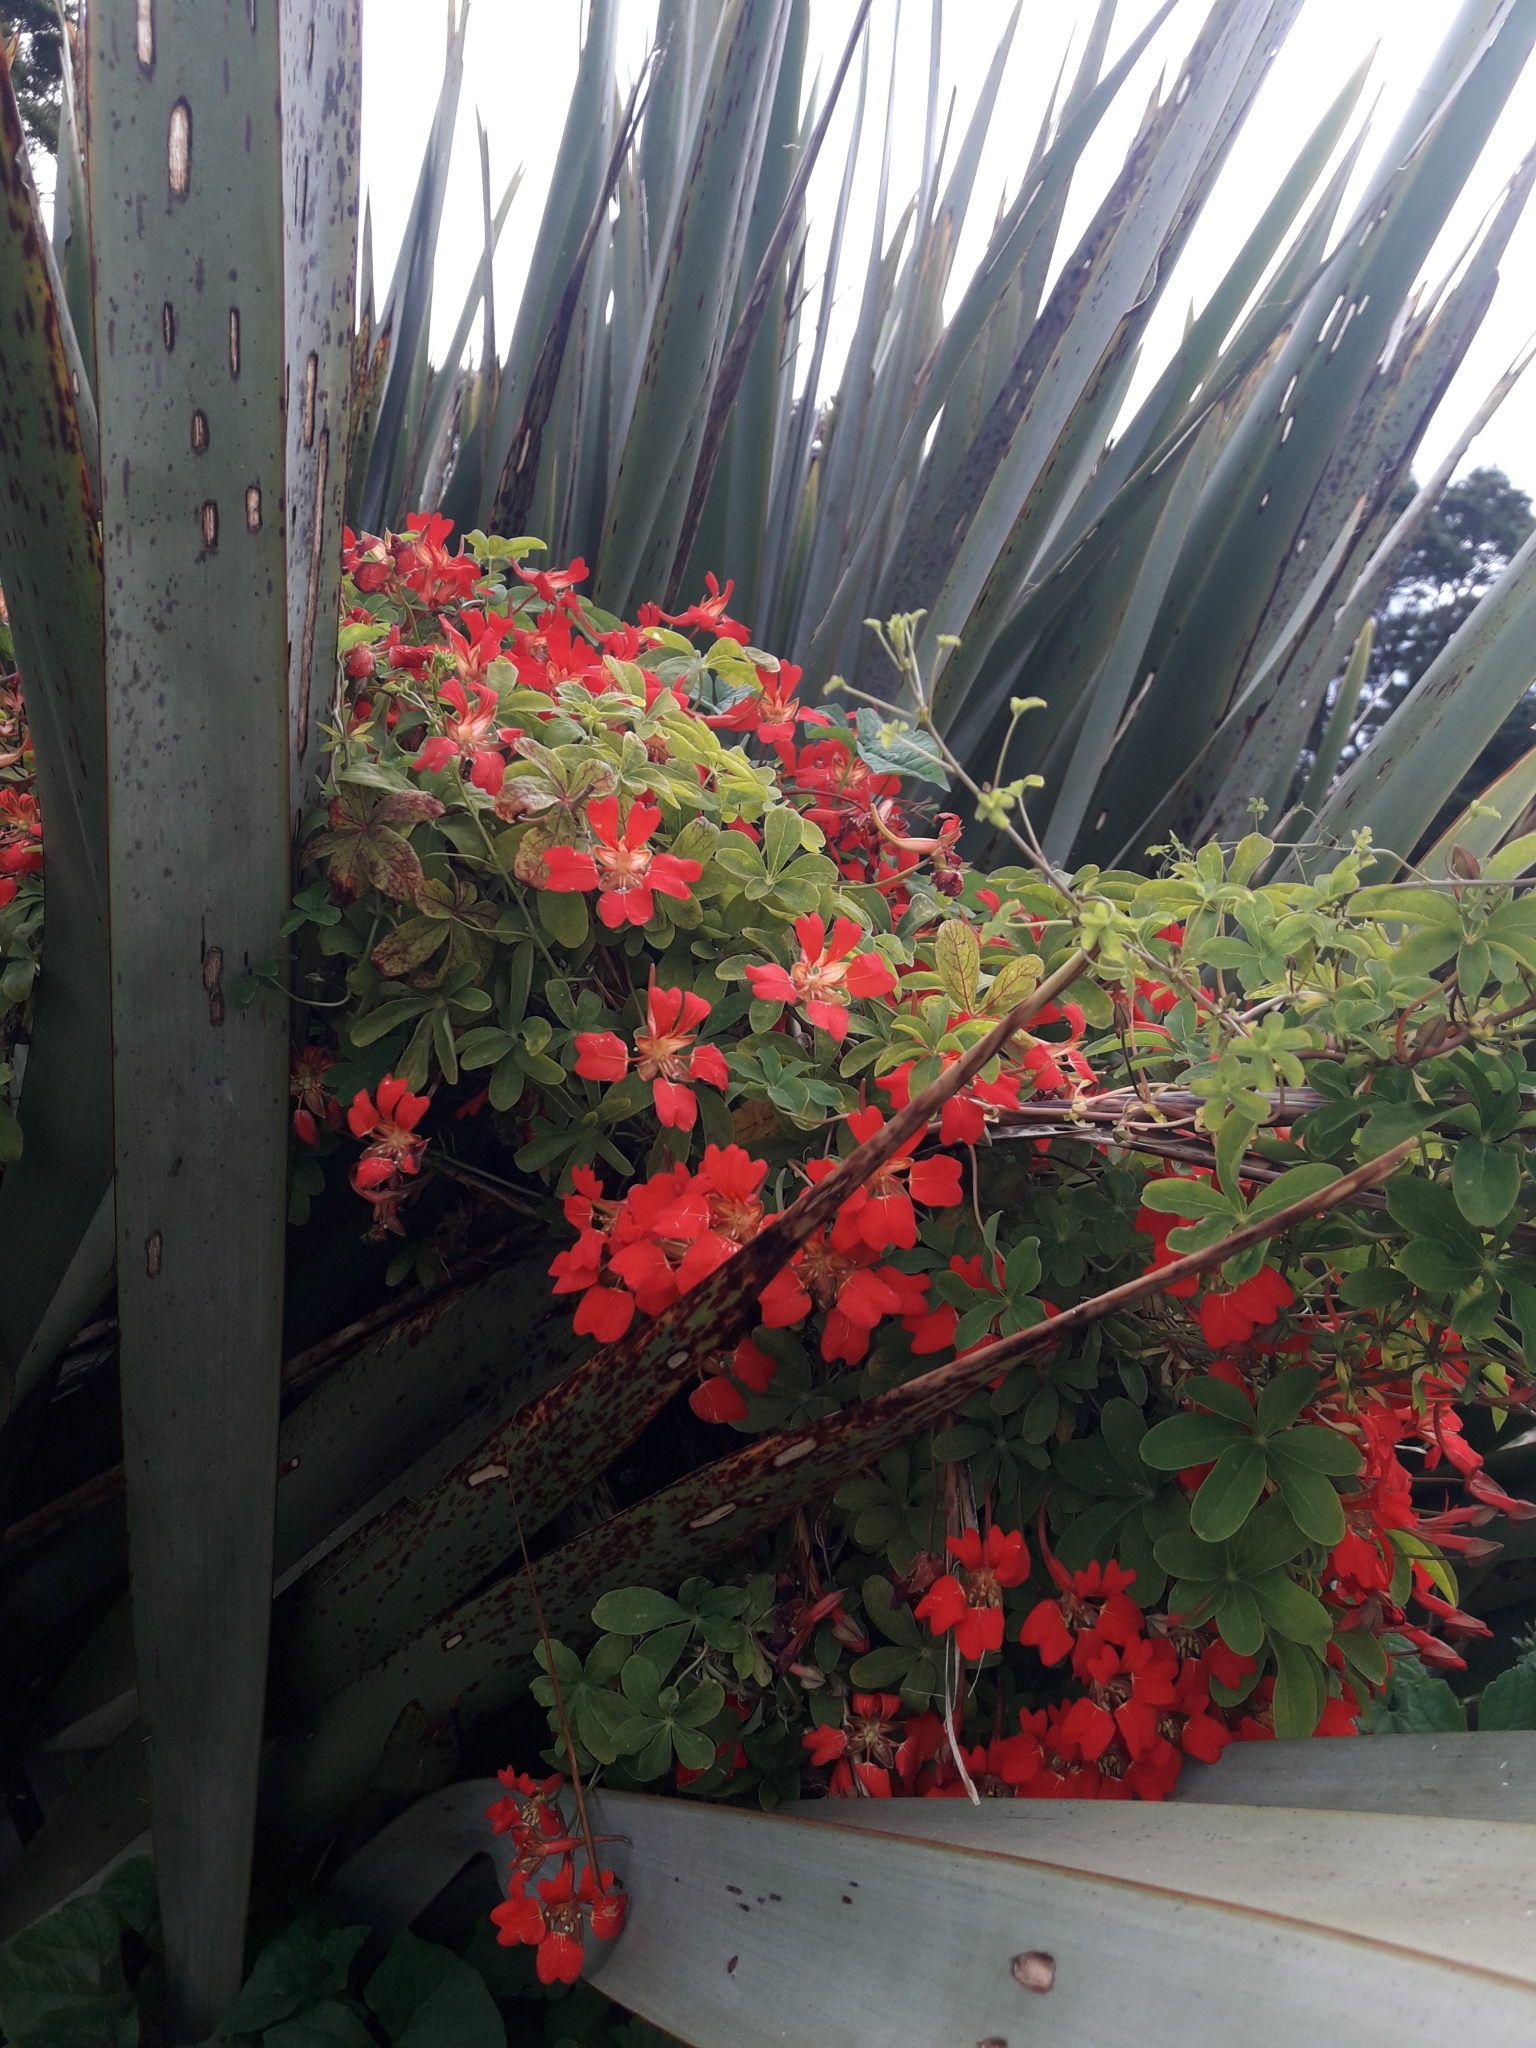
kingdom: Plantae
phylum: Tracheophyta
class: Magnoliopsida
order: Brassicales
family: Tropaeolaceae
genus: Tropaeolum
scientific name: Tropaeolum speciosum
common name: Flame nasturtium
